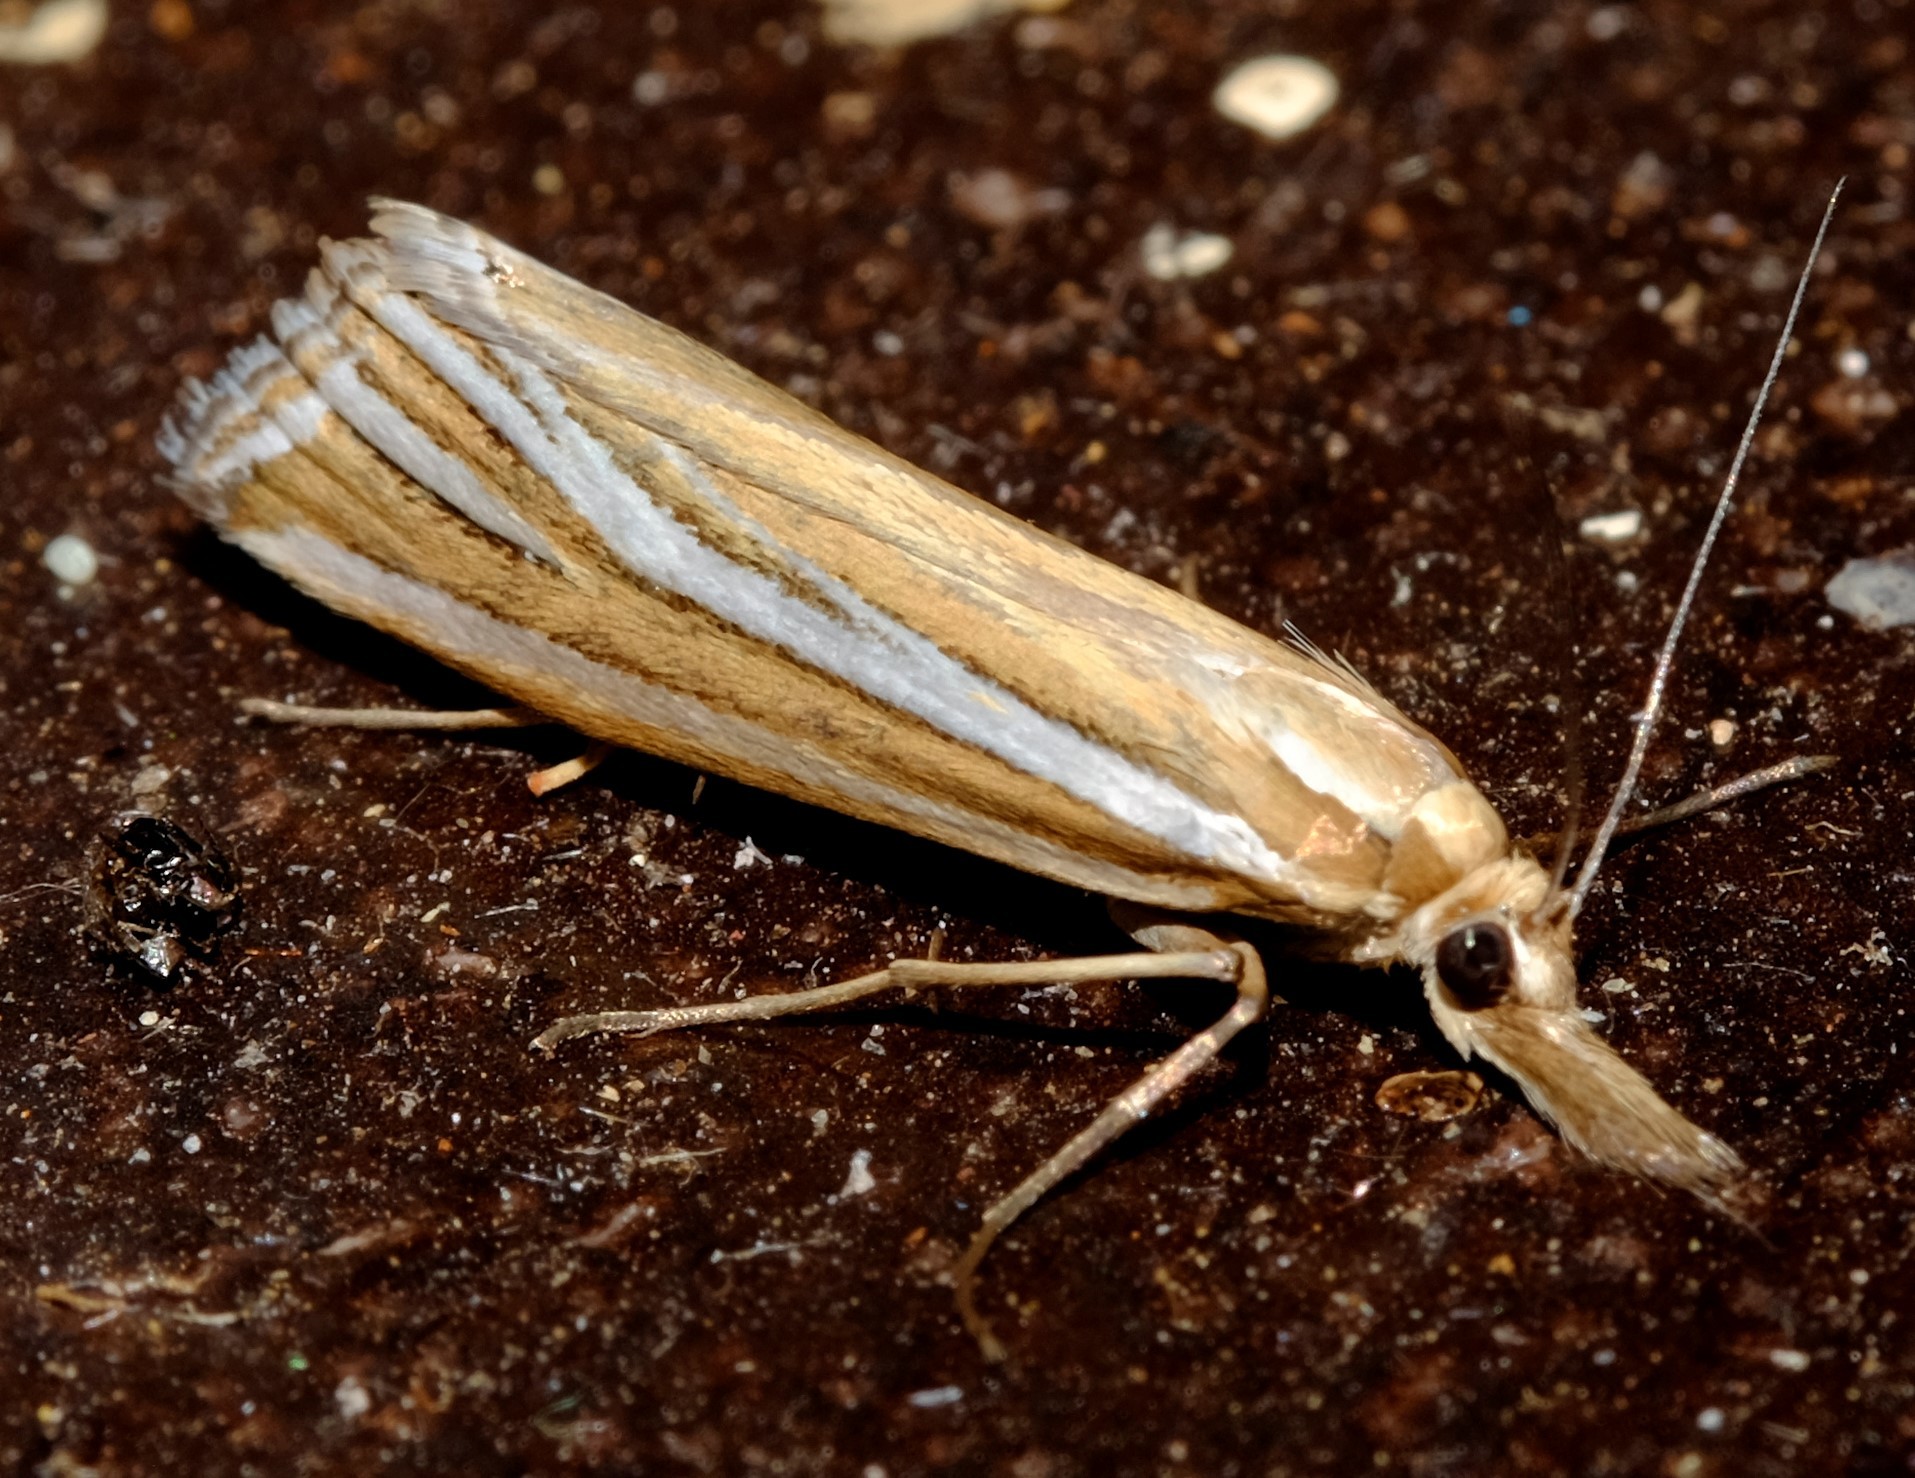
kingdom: Animalia
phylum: Arthropoda
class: Insecta
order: Lepidoptera
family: Crambidae
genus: Hednota
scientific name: Hednota relatalis
